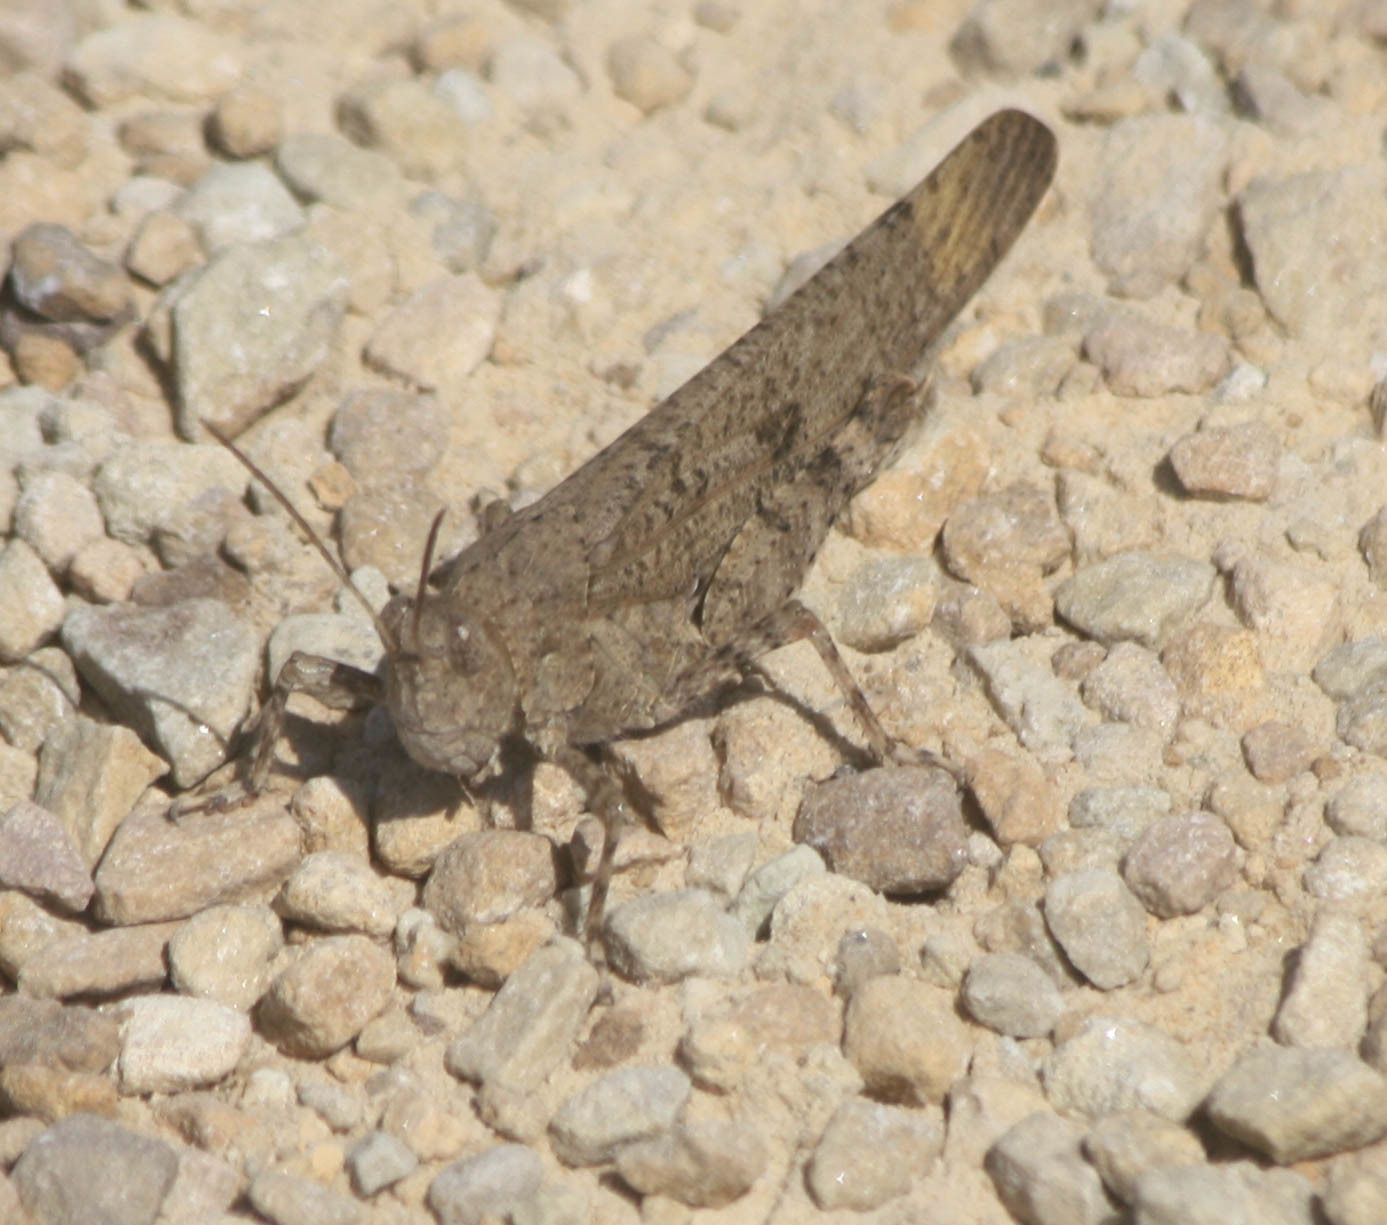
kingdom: Animalia
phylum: Arthropoda
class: Insecta
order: Orthoptera
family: Acrididae
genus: Dissosteira
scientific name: Dissosteira carolina
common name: Carolina grasshopper
